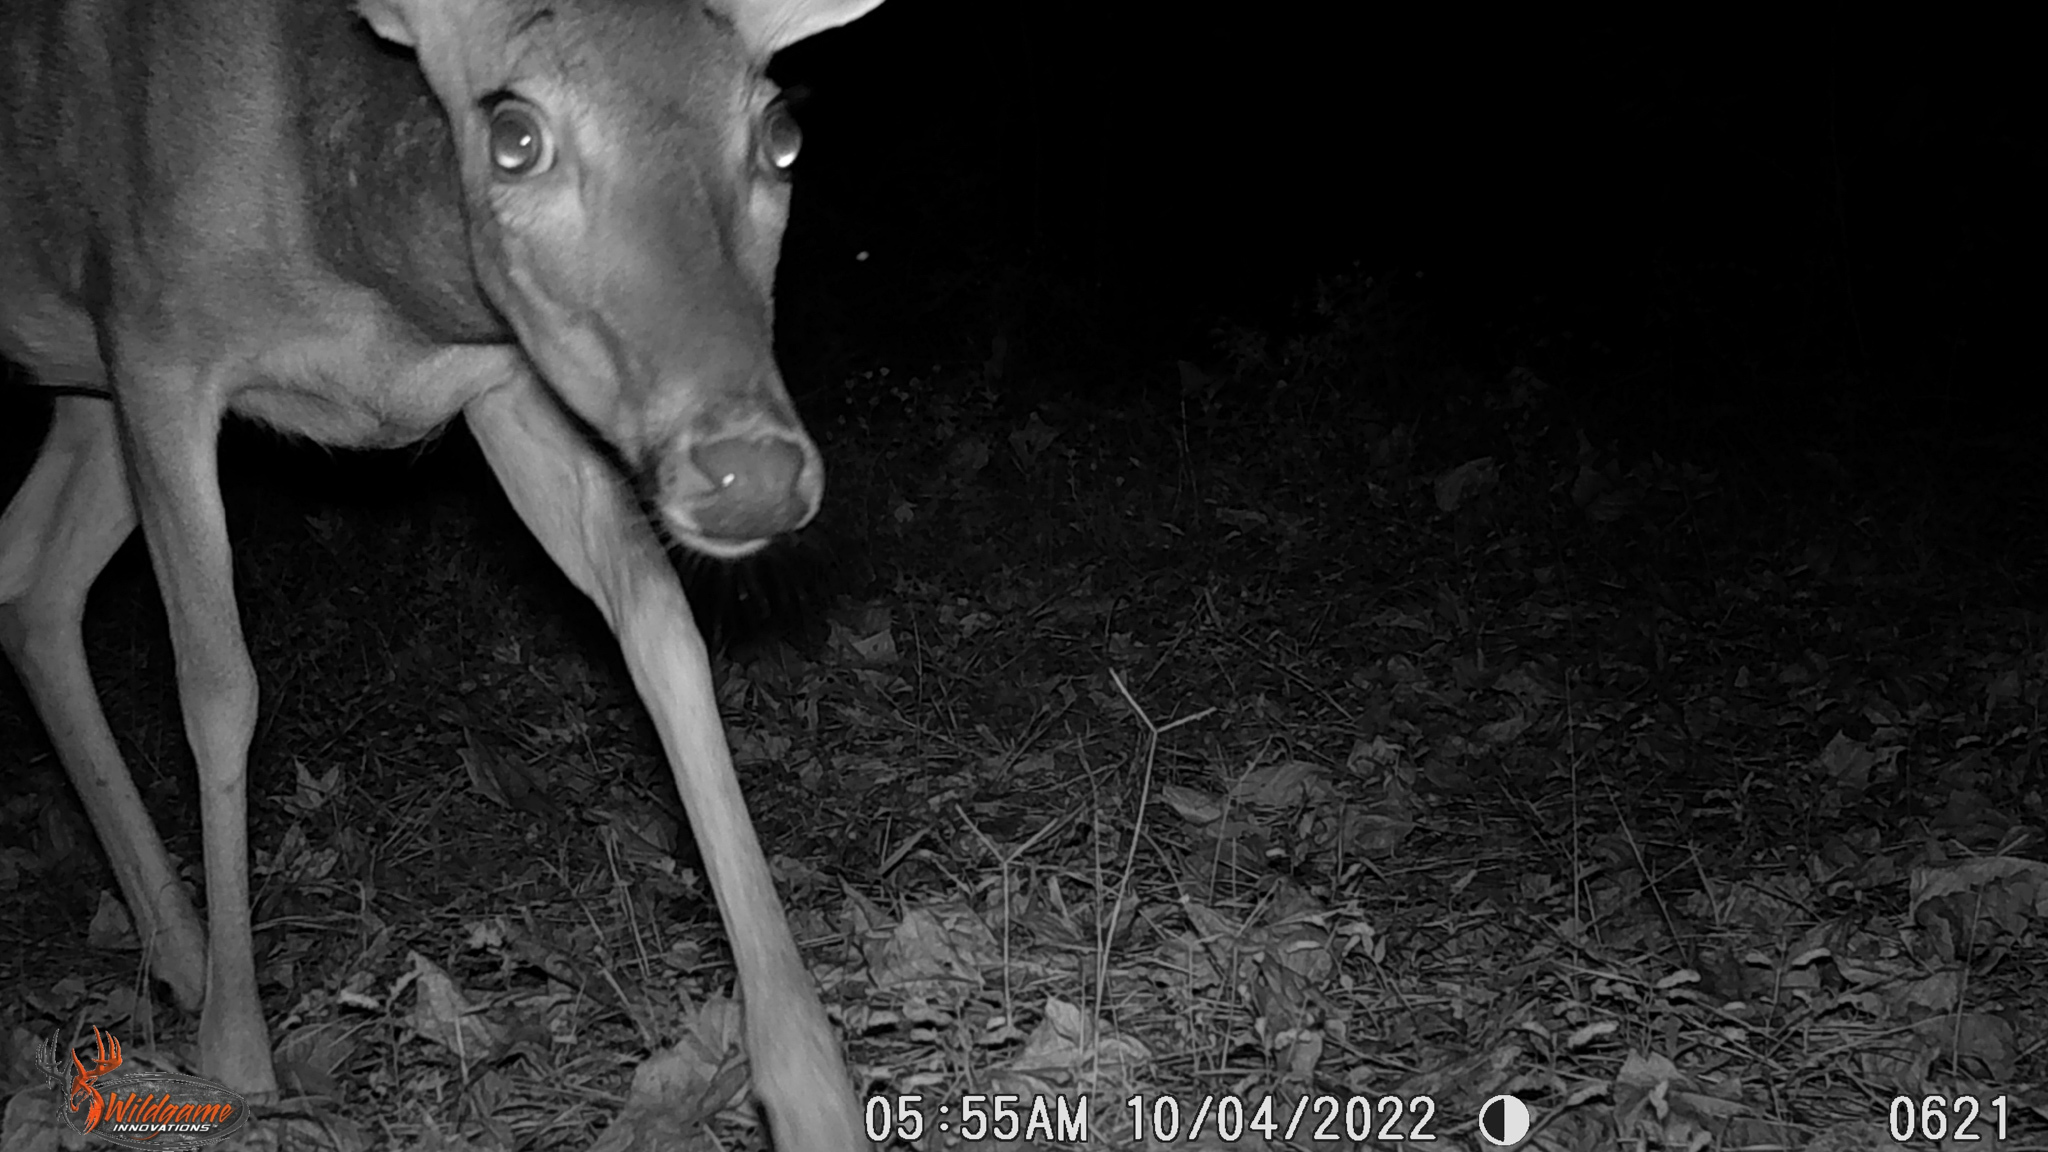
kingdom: Animalia
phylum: Chordata
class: Mammalia
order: Artiodactyla
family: Cervidae
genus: Odocoileus
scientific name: Odocoileus virginianus
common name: White-tailed deer
